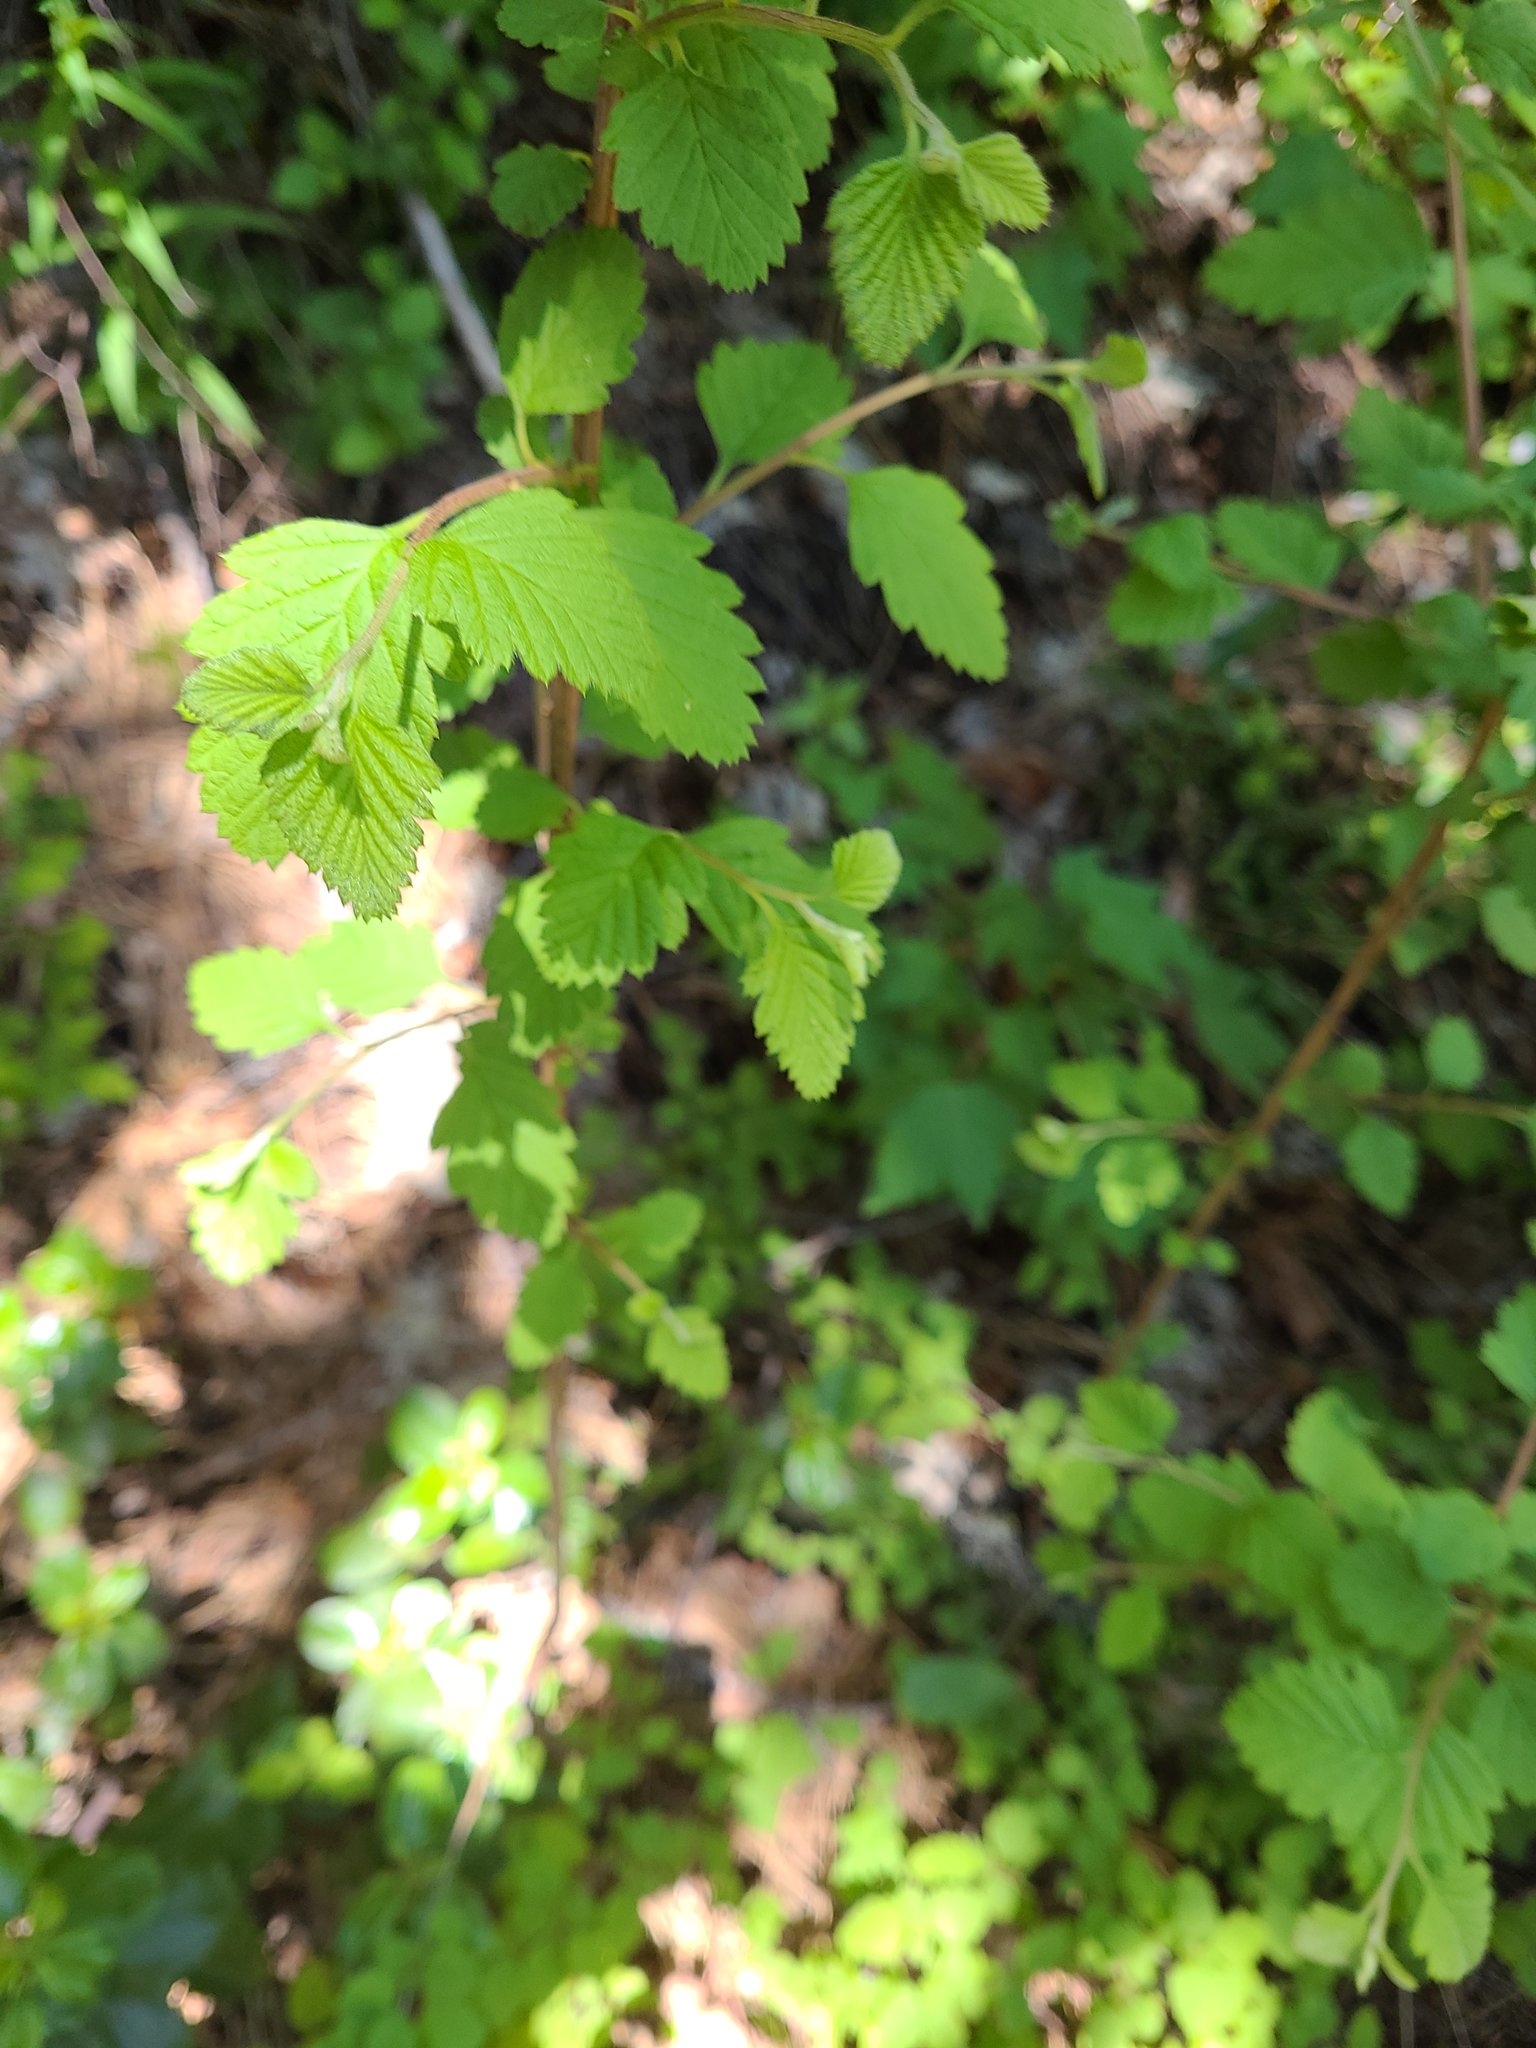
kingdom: Plantae
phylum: Tracheophyta
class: Magnoliopsida
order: Rosales
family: Rosaceae
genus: Holodiscus
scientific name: Holodiscus discolor
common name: Oceanspray
